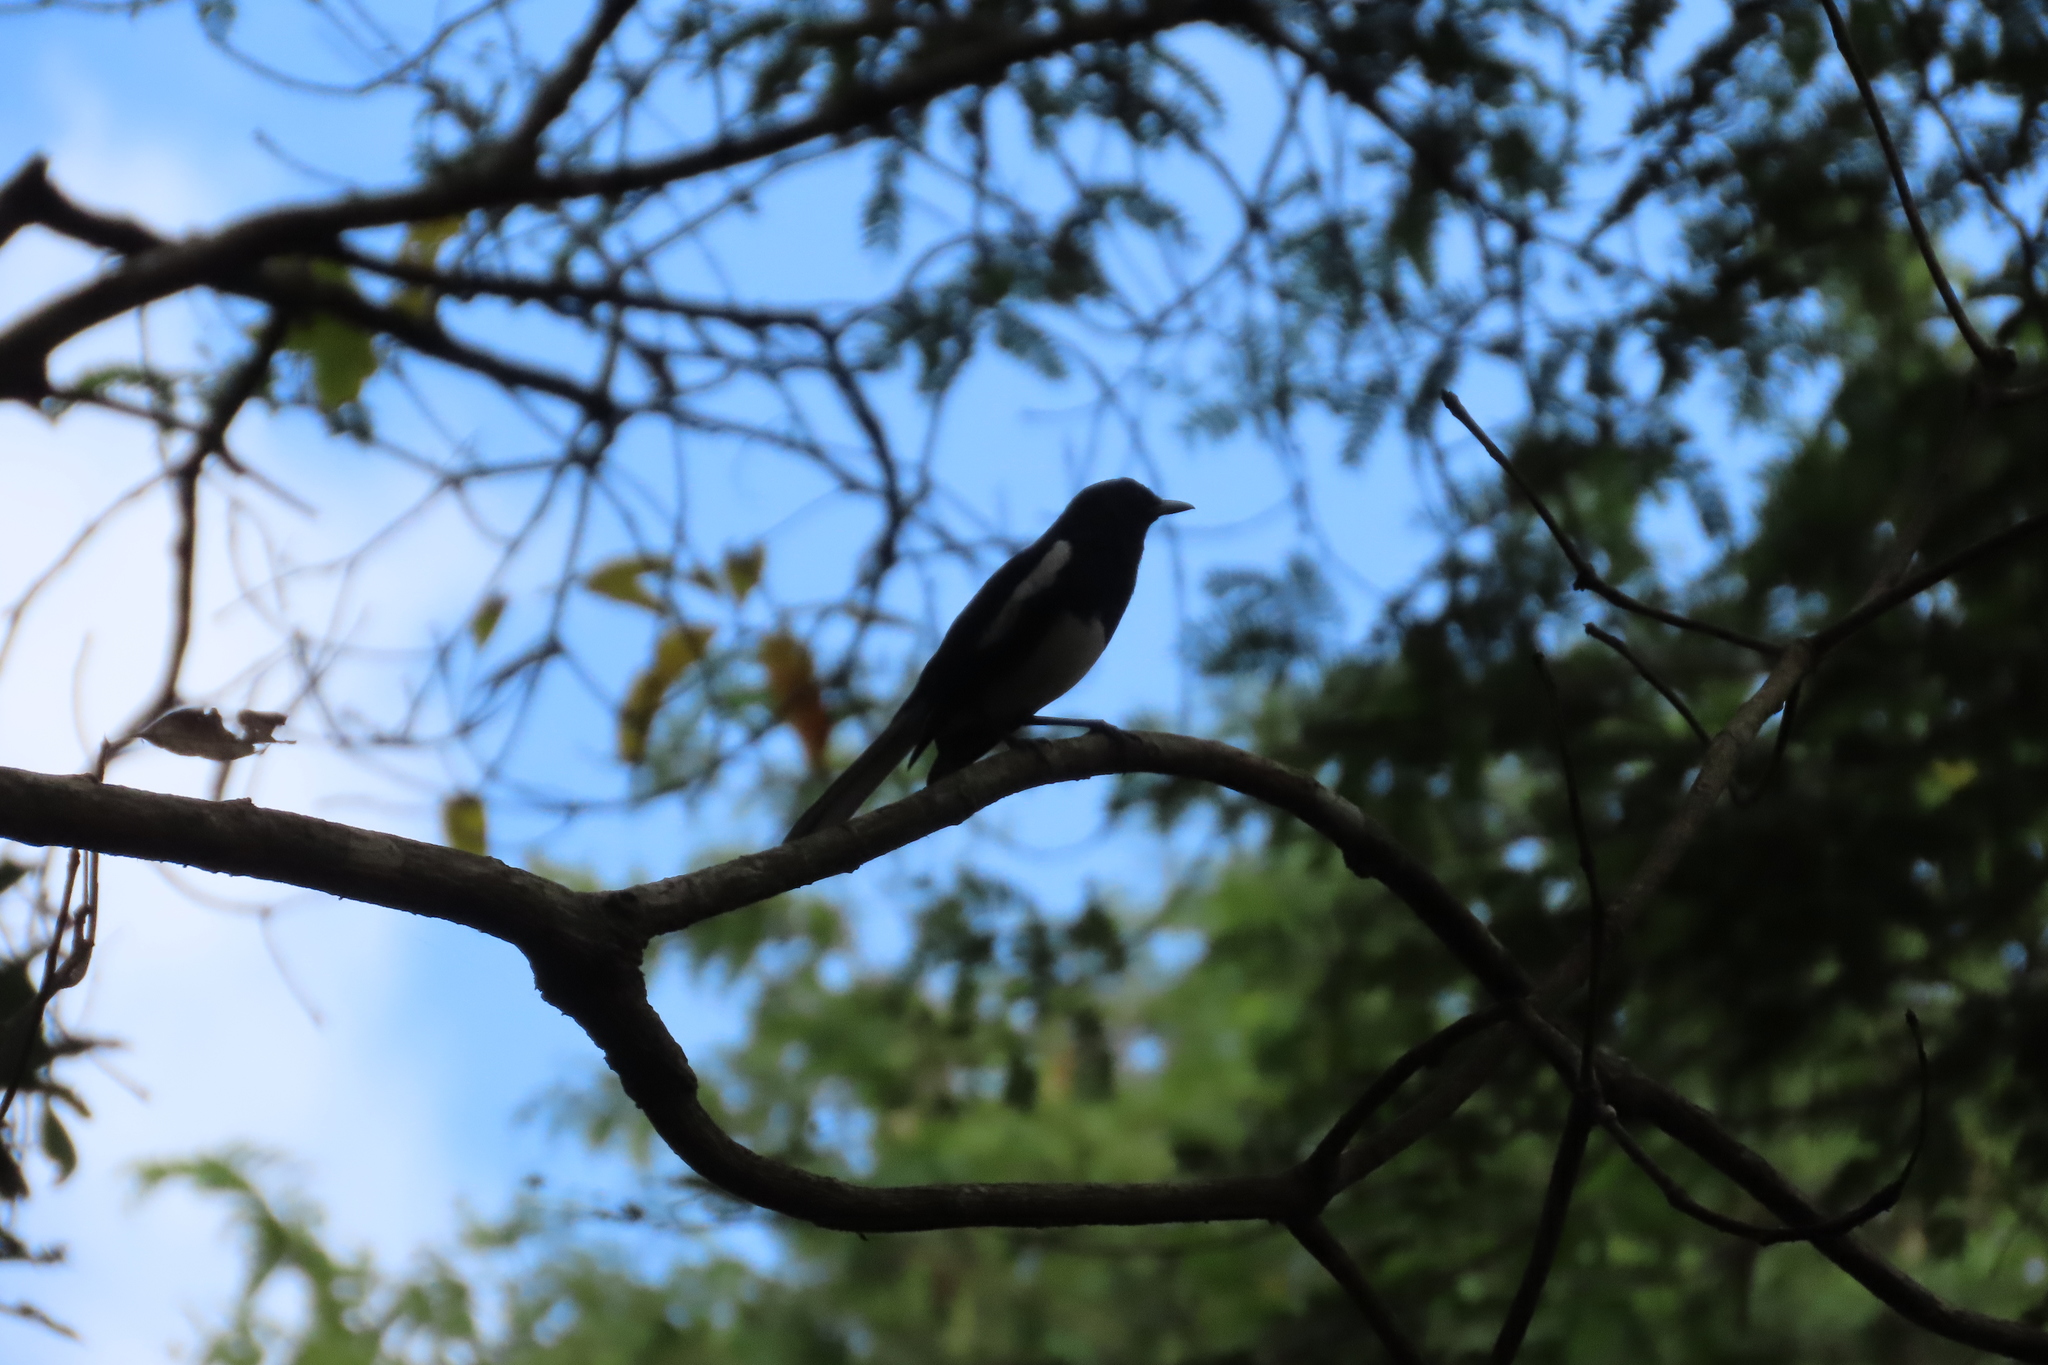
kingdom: Animalia
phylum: Chordata
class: Aves
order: Passeriformes
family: Muscicapidae
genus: Copsychus
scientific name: Copsychus saularis
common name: Oriental magpie-robin
